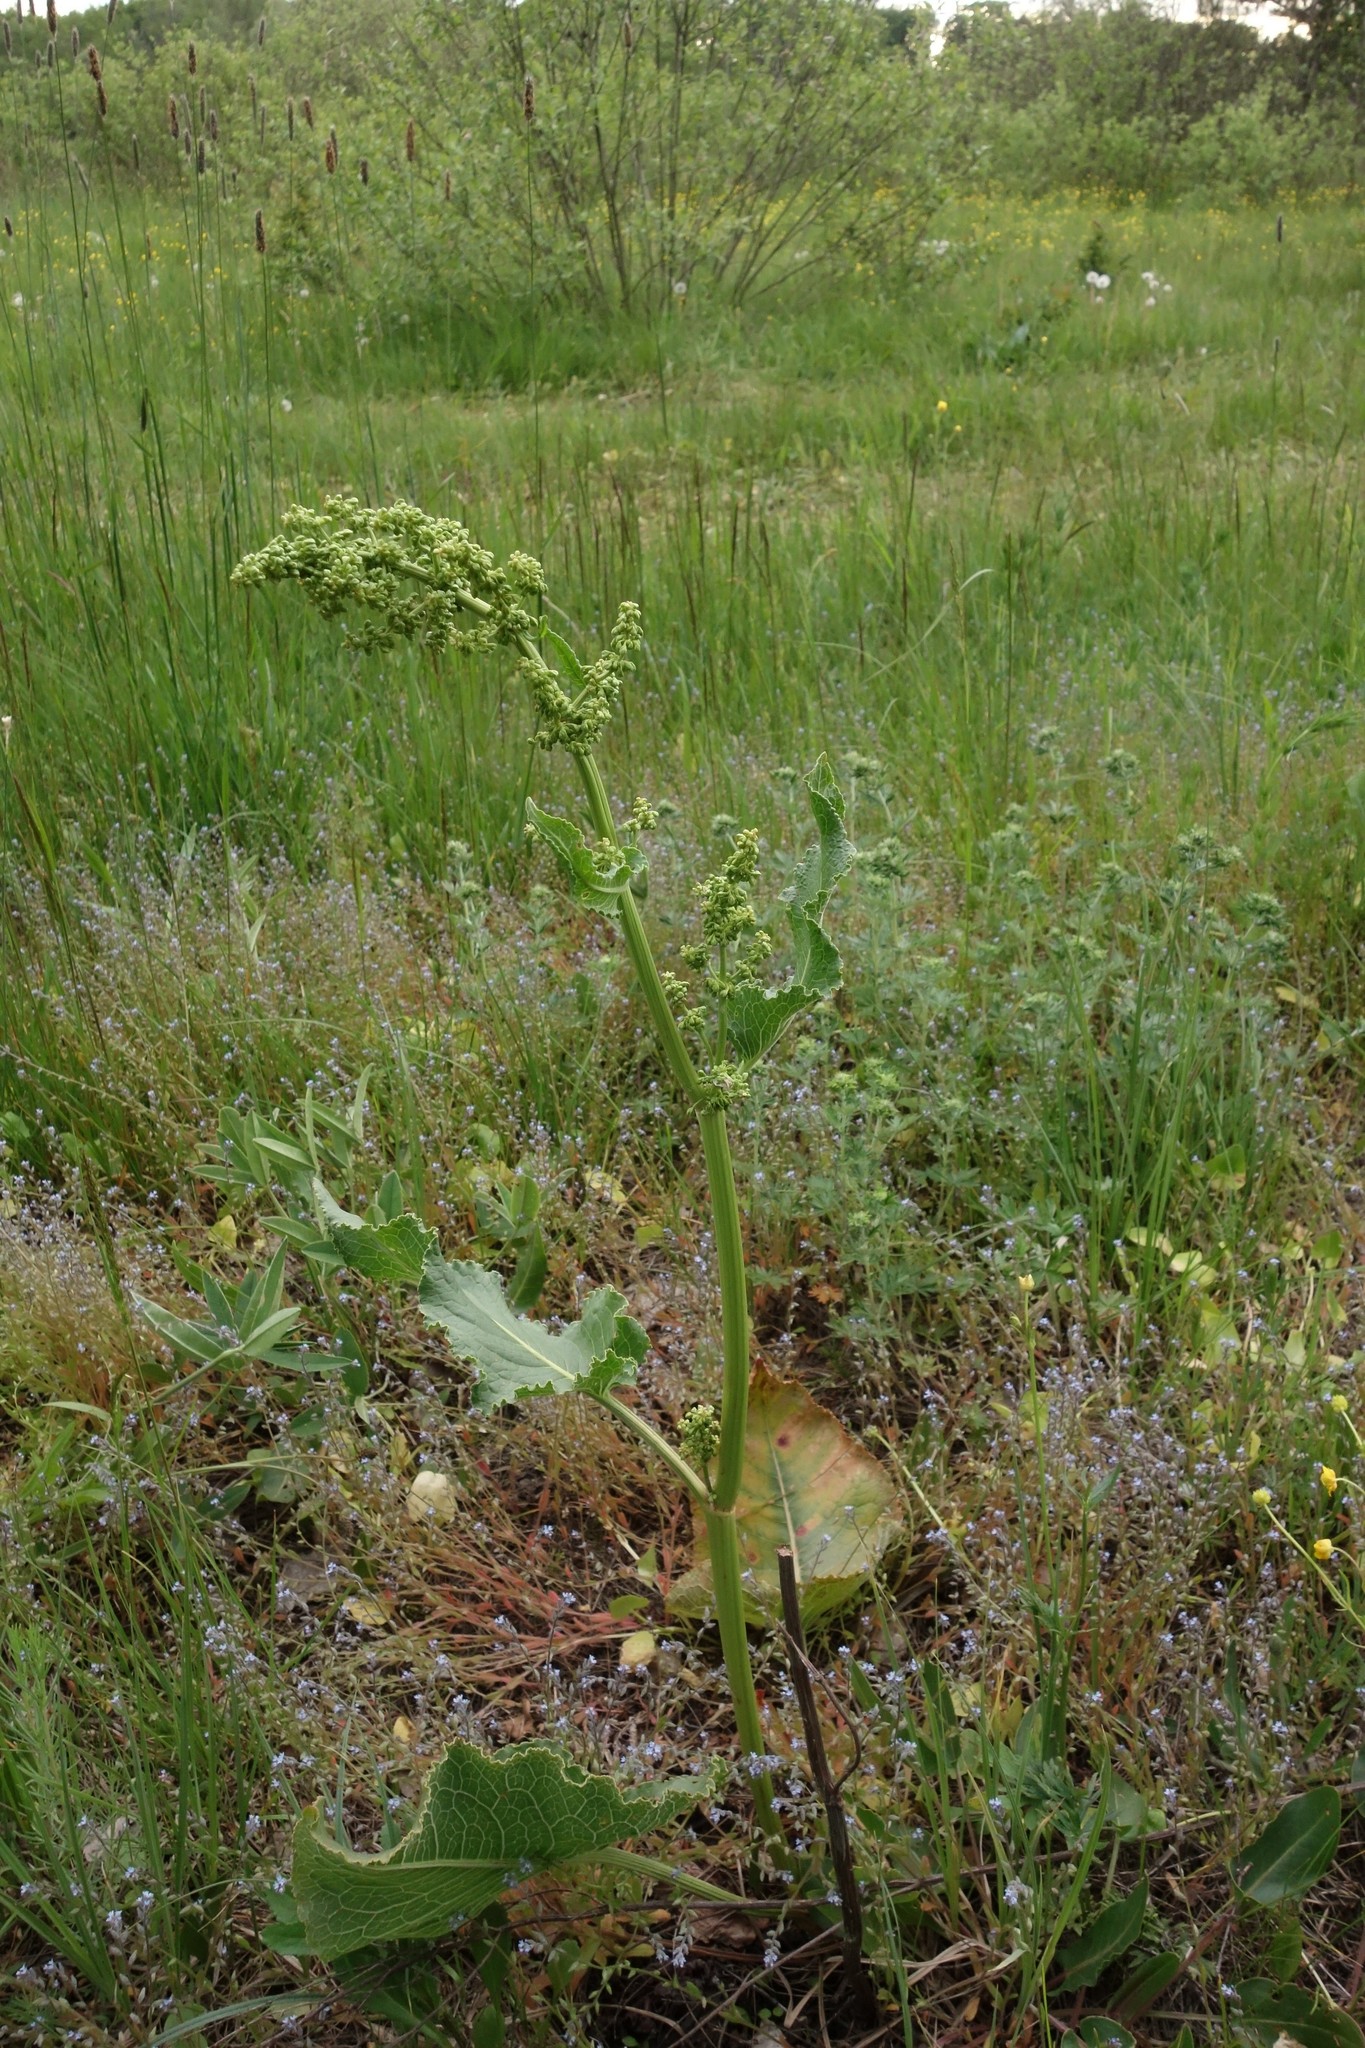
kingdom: Plantae
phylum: Tracheophyta
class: Magnoliopsida
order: Caryophyllales
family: Polygonaceae
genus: Rumex
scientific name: Rumex confertus
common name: Russian dock
